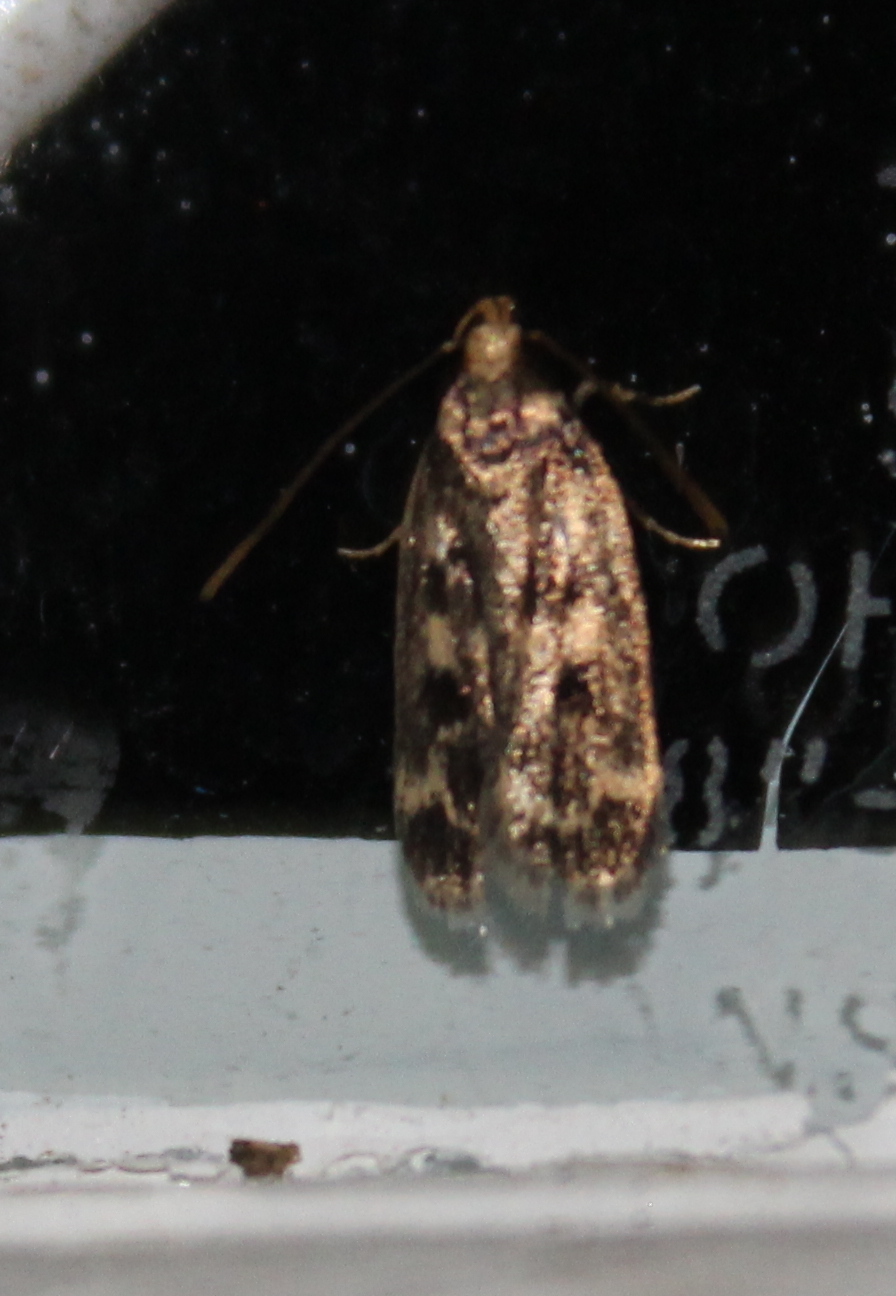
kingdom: Animalia
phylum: Arthropoda
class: Insecta
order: Lepidoptera
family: Lecithoceridae
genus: Martyringa
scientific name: Martyringa latipennis
